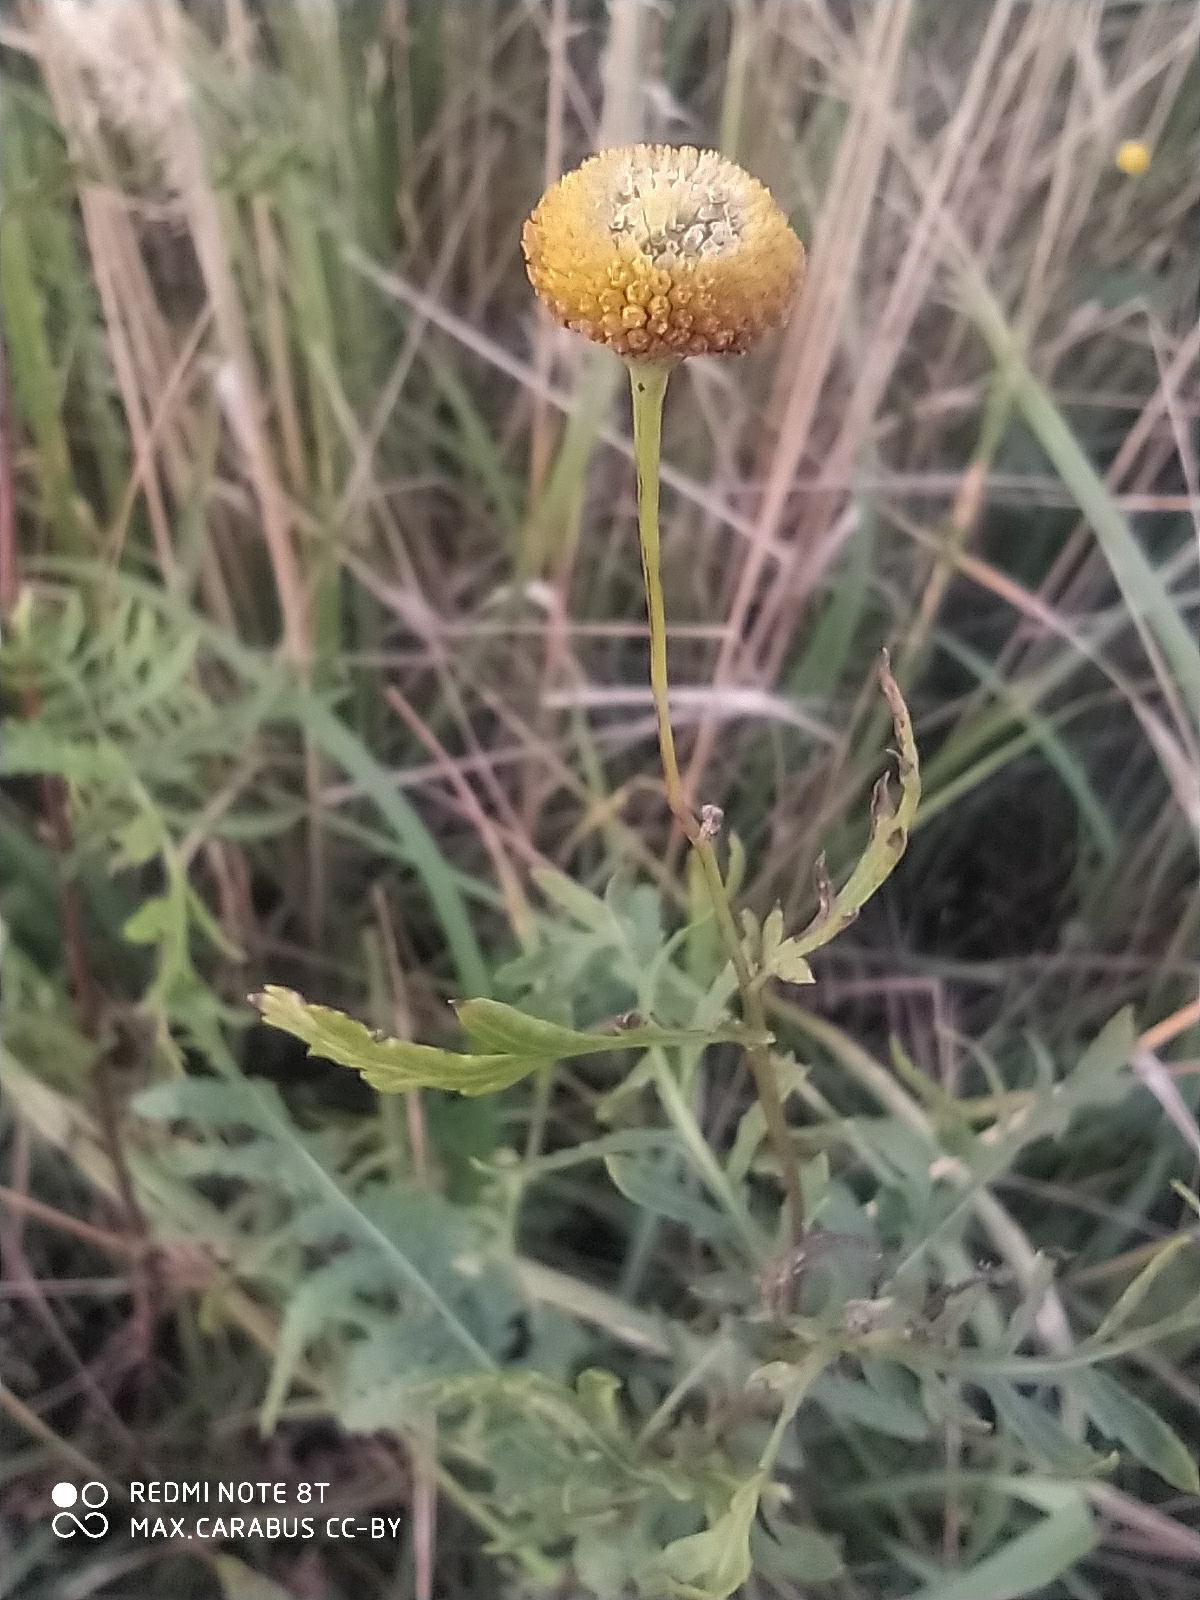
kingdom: Plantae
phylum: Tracheophyta
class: Magnoliopsida
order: Asterales
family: Asteraceae
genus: Tanacetum
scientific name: Tanacetum vulgare
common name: Common tansy
